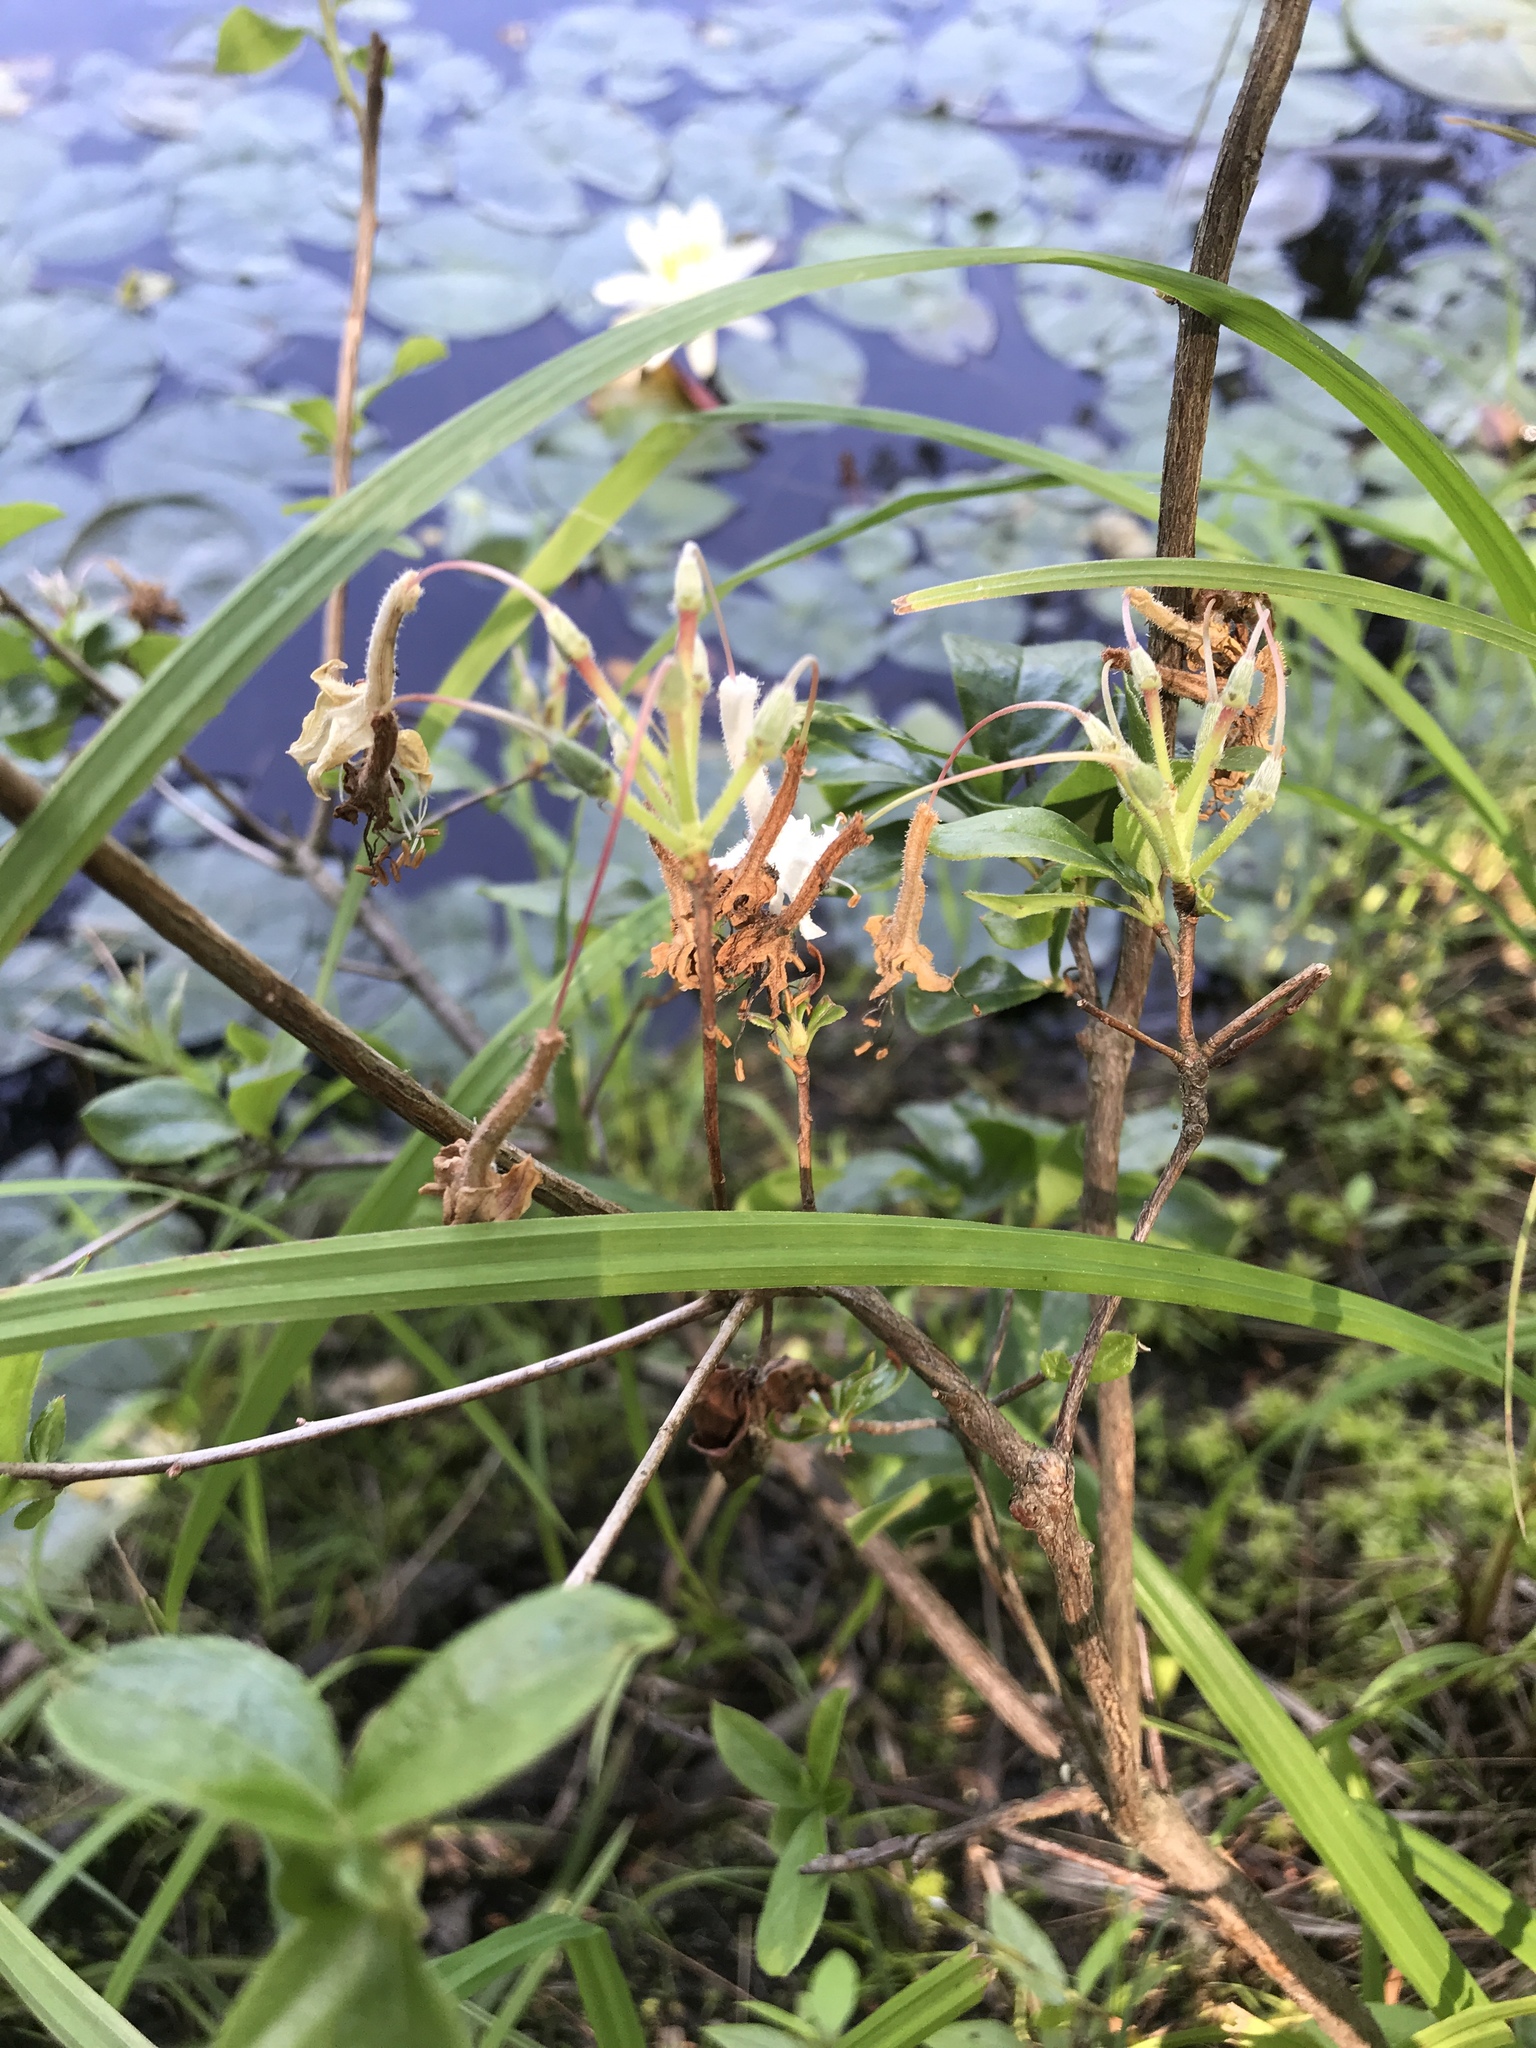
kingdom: Plantae
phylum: Tracheophyta
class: Magnoliopsida
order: Ericales
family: Ericaceae
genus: Rhododendron
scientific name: Rhododendron viscosum
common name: Clammy azalea
